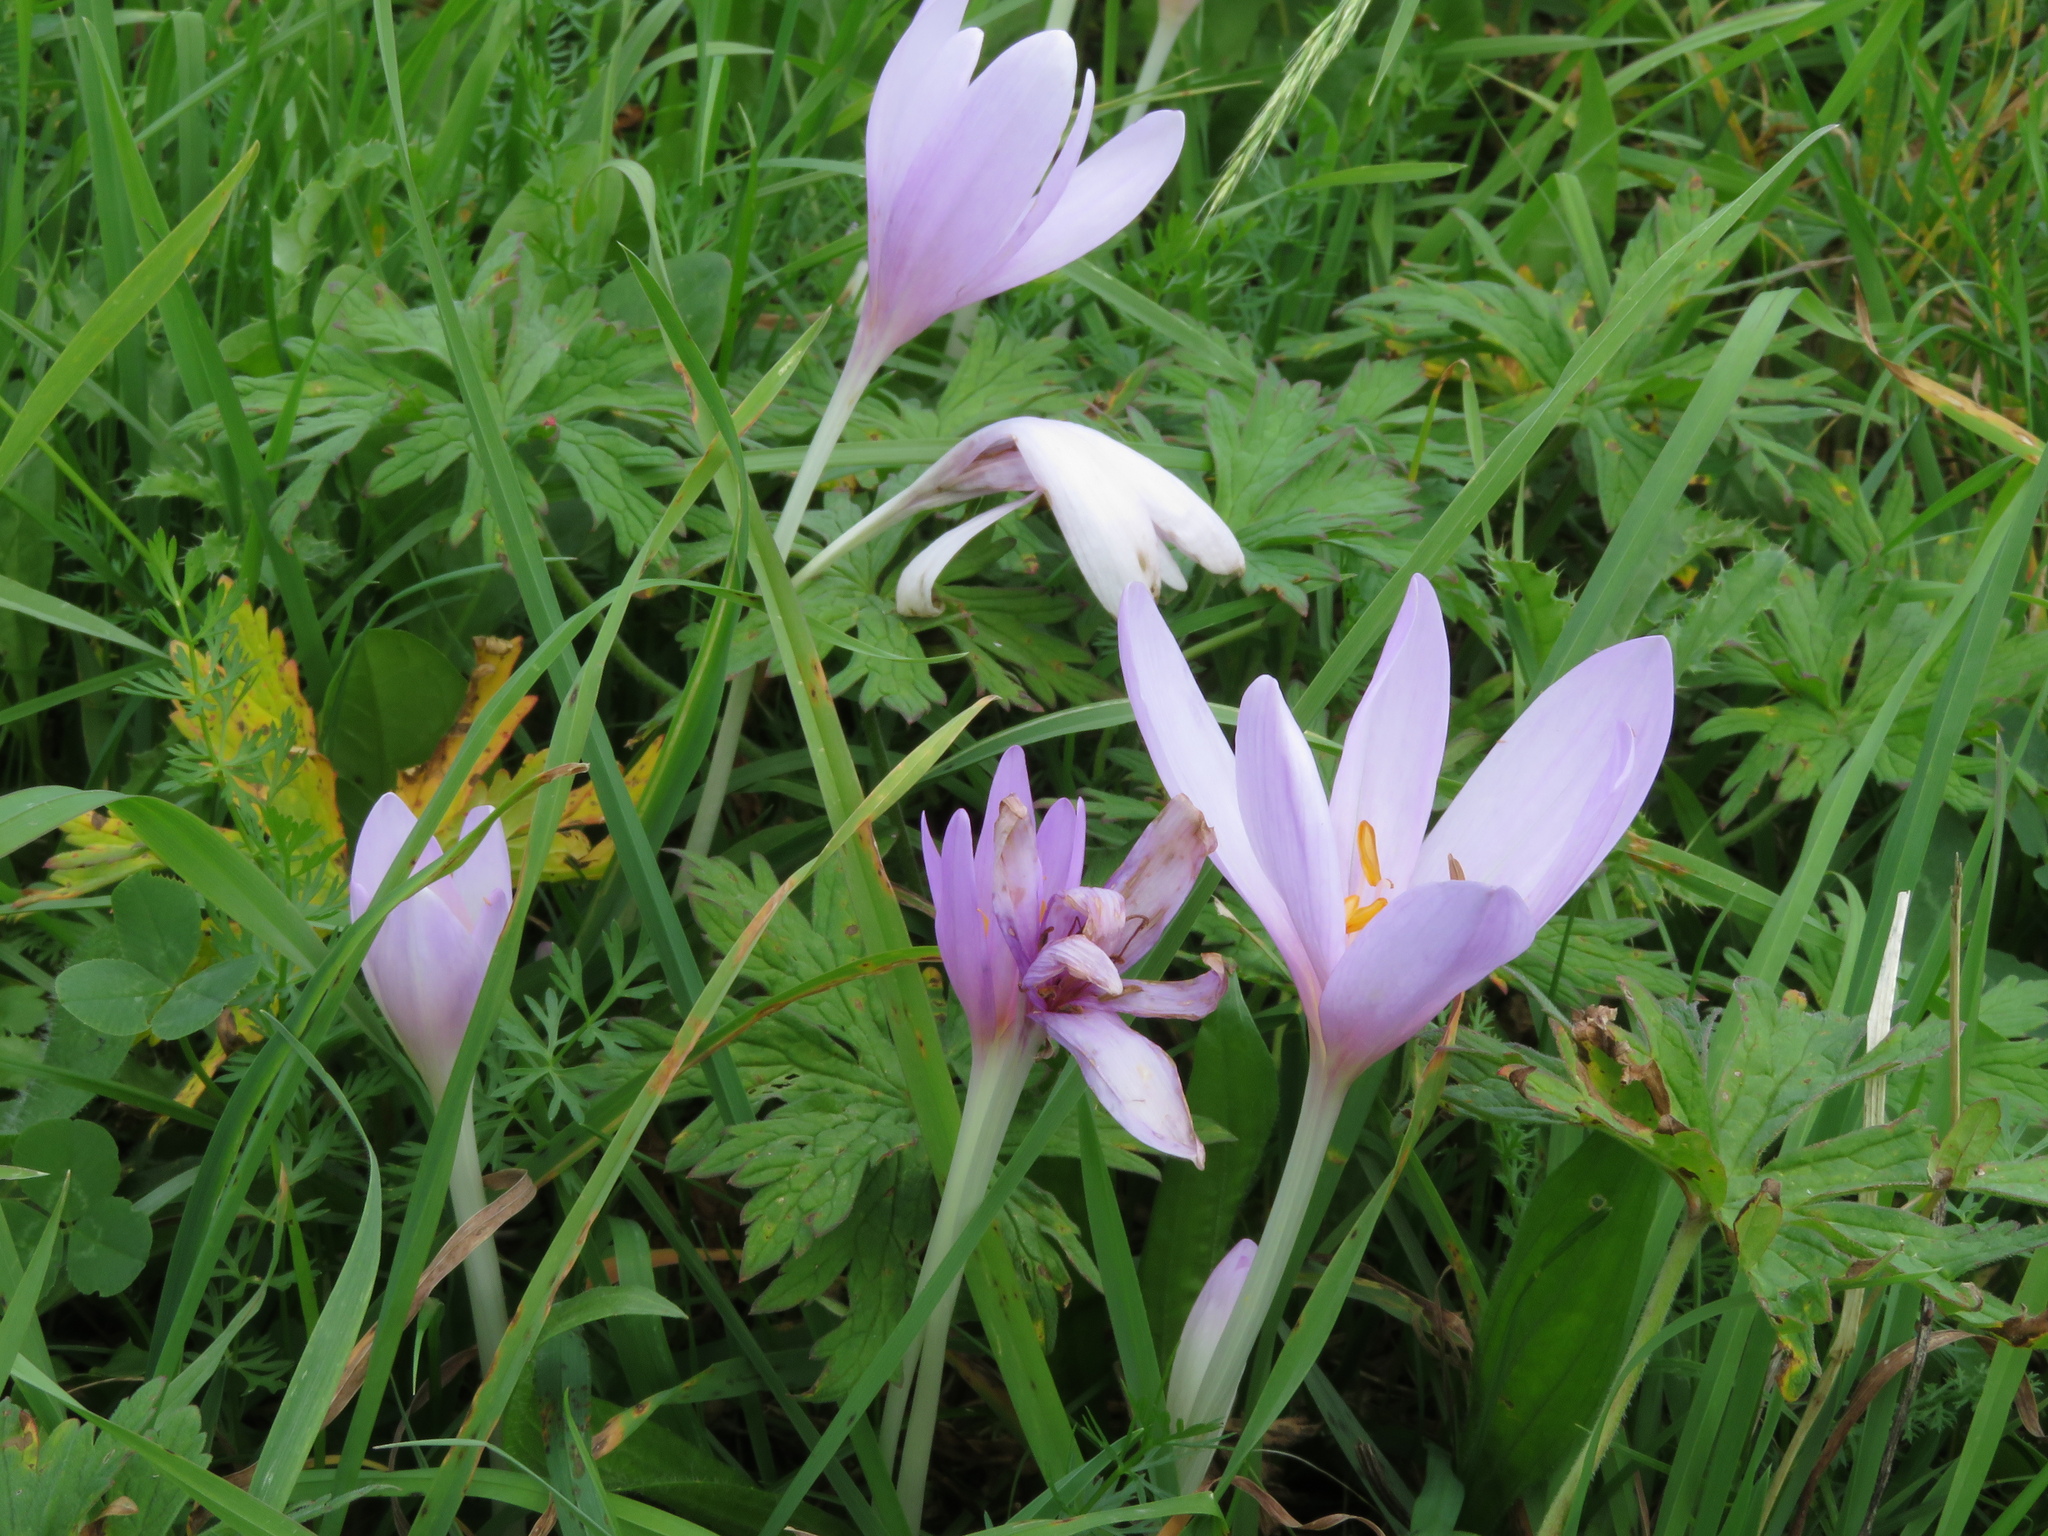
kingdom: Plantae
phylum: Tracheophyta
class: Liliopsida
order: Liliales
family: Colchicaceae
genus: Colchicum
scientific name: Colchicum autumnale
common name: Autumn crocus
